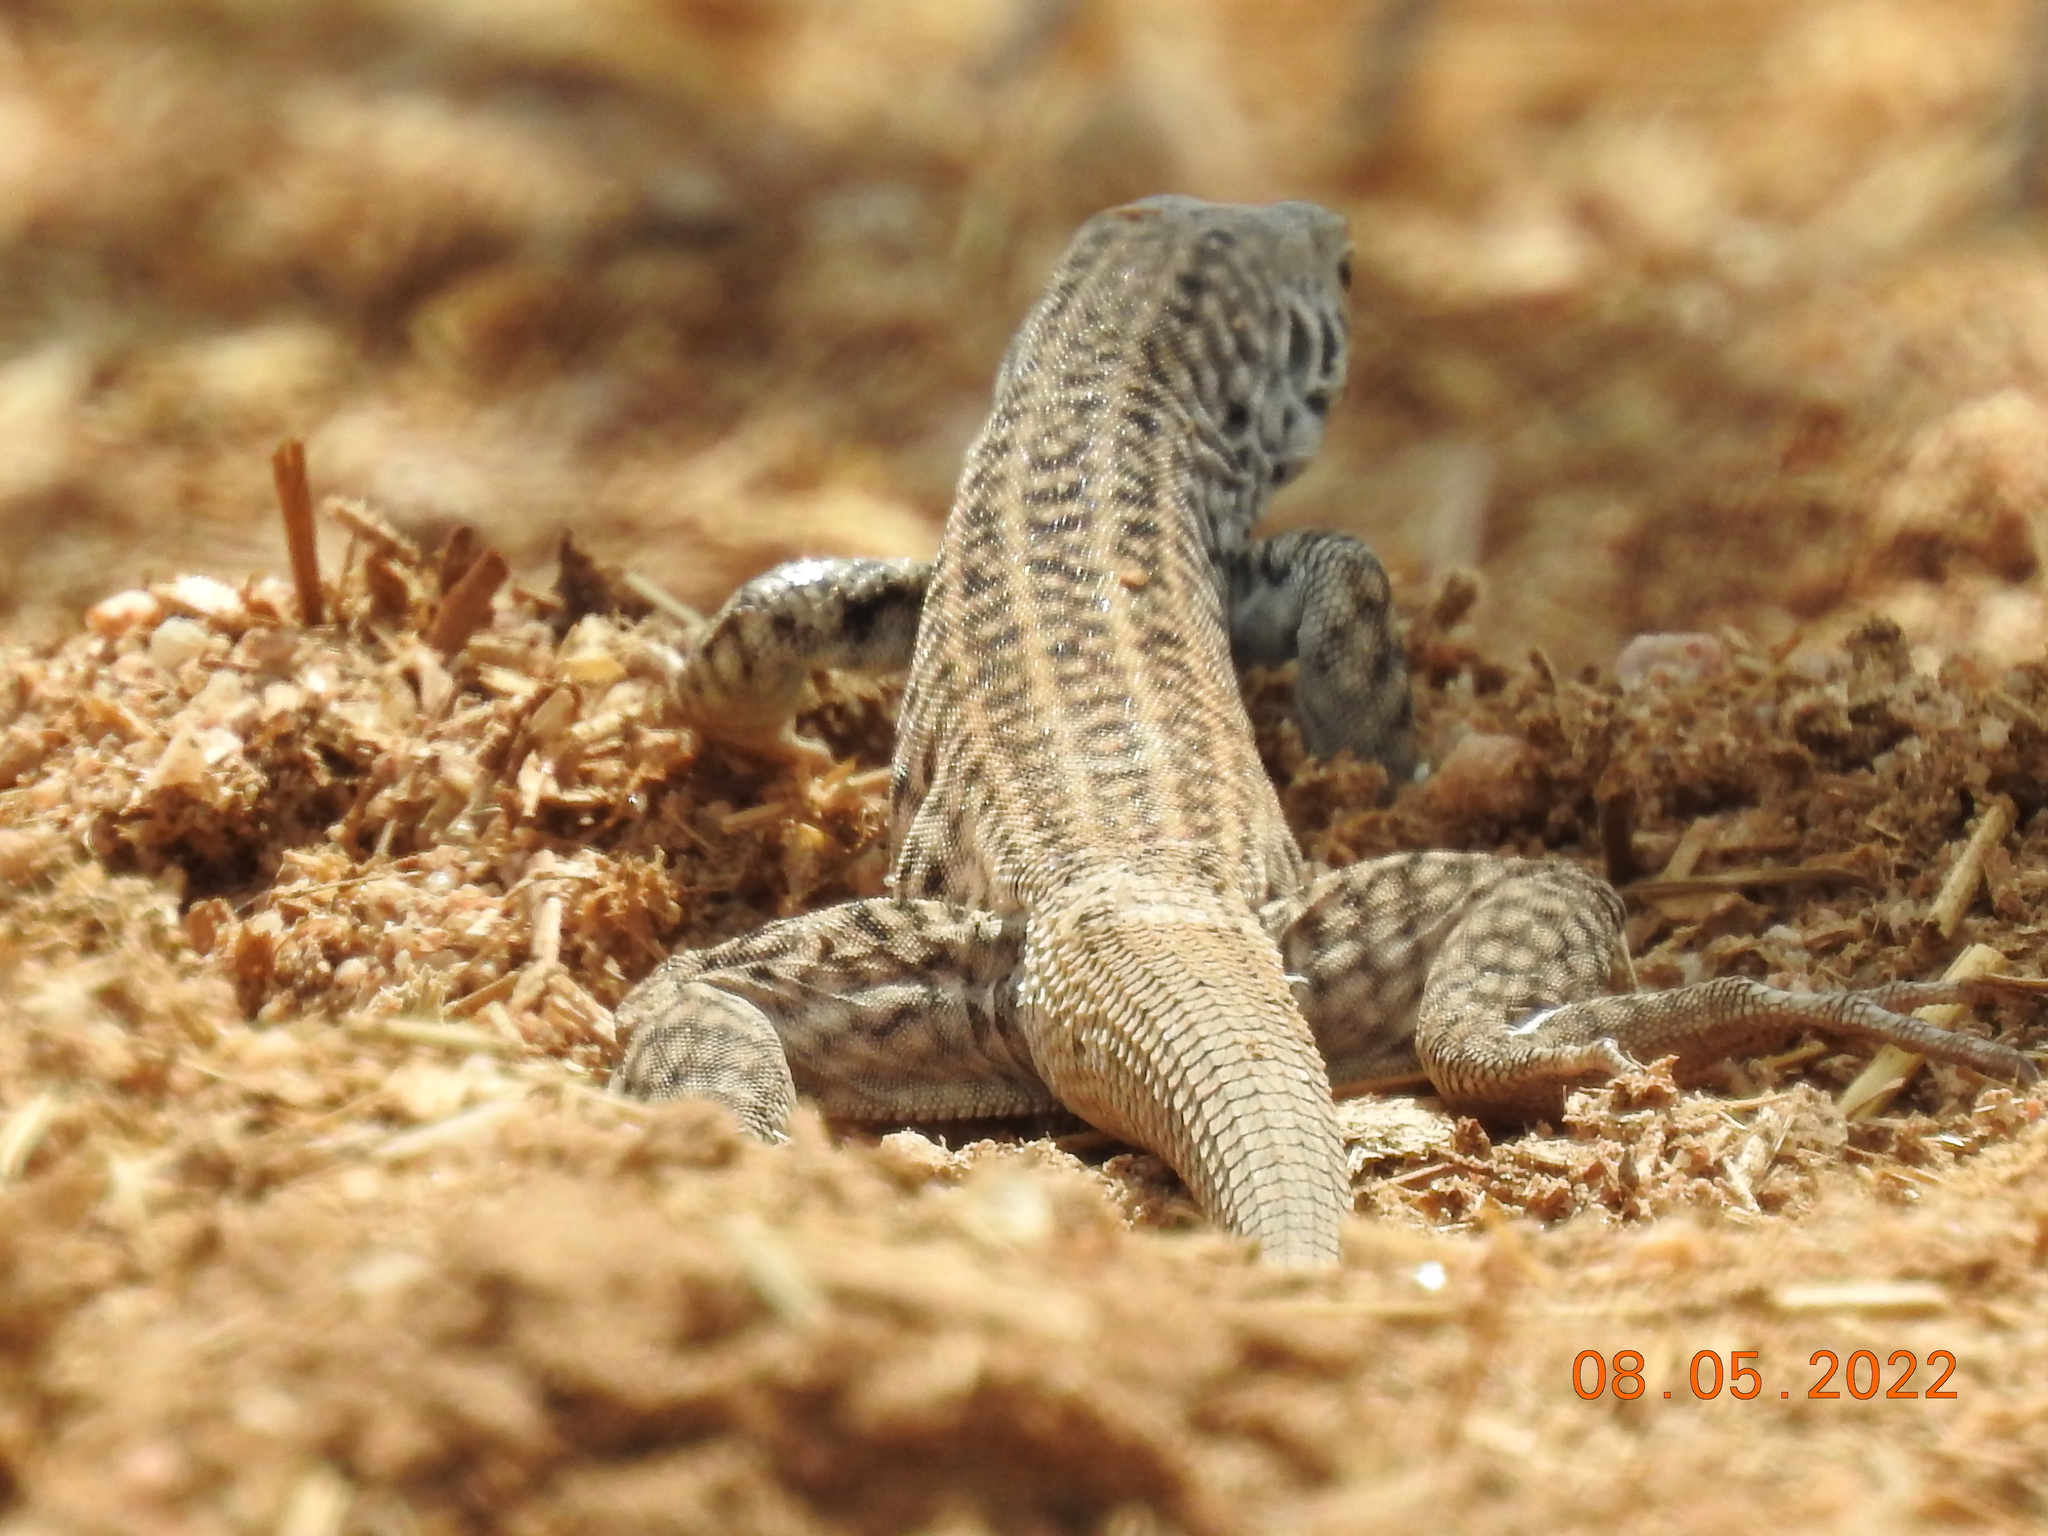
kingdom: Animalia
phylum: Chordata
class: Squamata
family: Teiidae
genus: Aspidoscelis
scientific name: Aspidoscelis tigris
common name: Tiger whiptail
